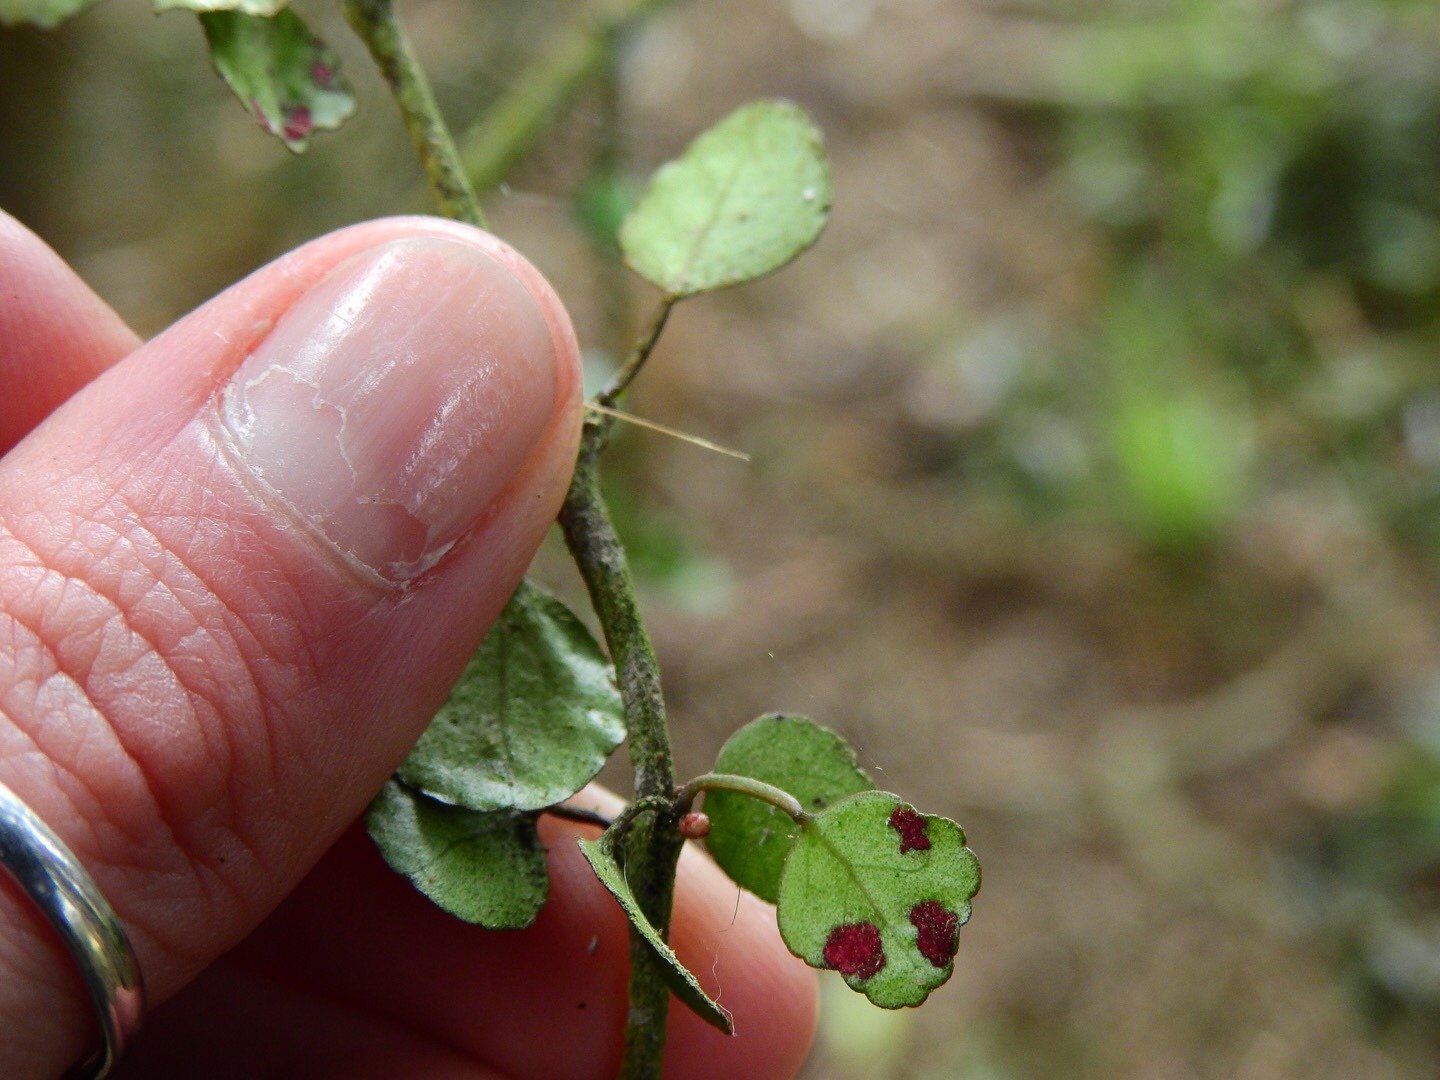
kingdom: Plantae
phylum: Tracheophyta
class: Magnoliopsida
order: Sapindales
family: Rutaceae
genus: Melicope
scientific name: Melicope simplex
